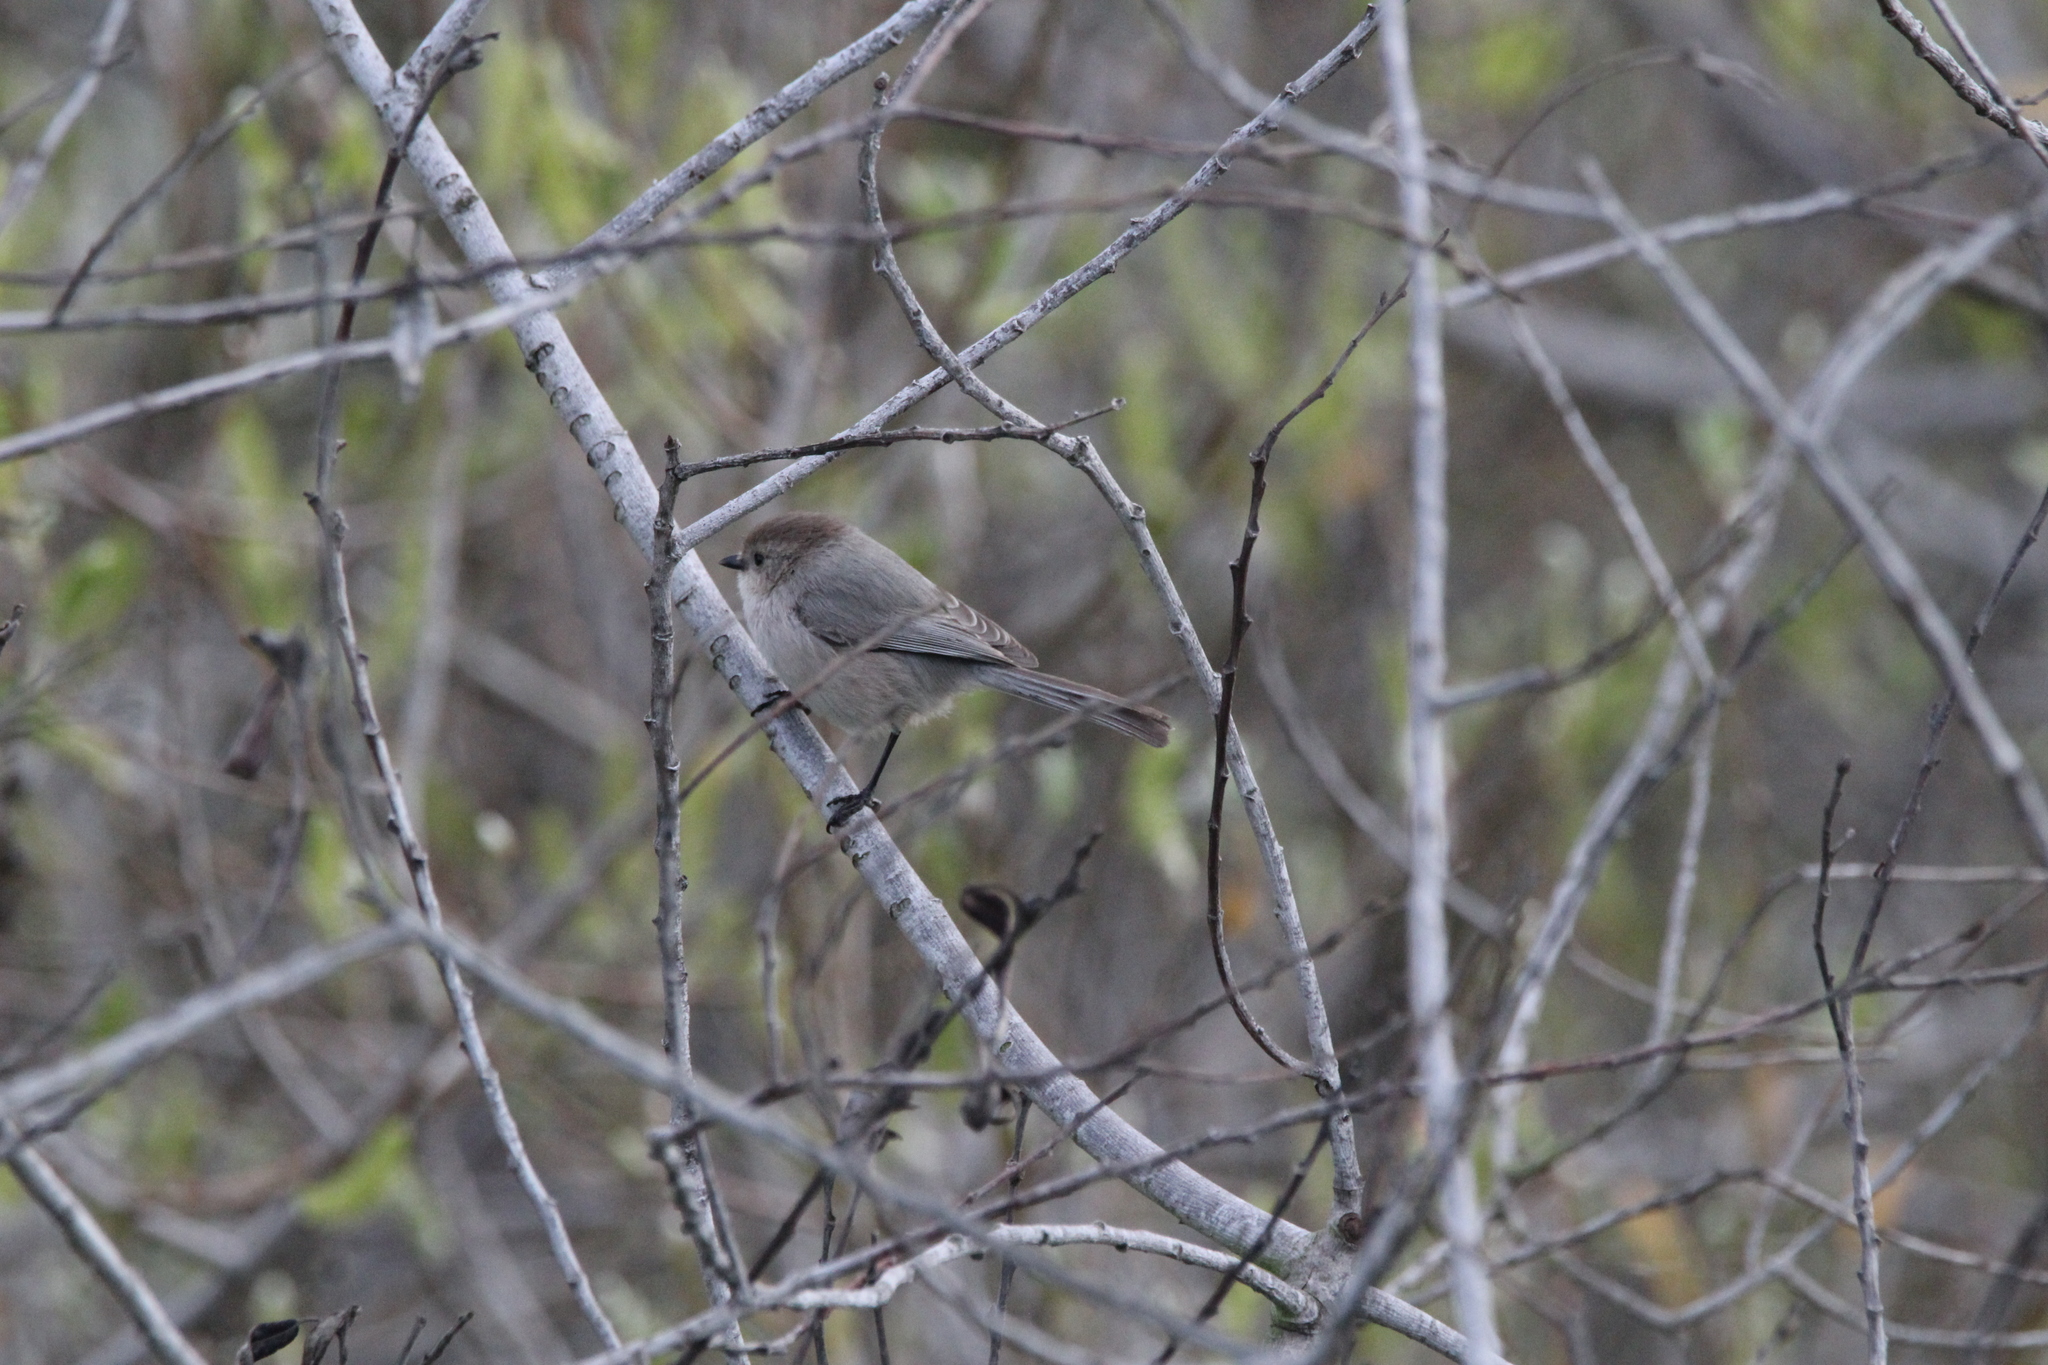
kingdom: Animalia
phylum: Chordata
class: Aves
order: Passeriformes
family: Aegithalidae
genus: Psaltriparus
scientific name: Psaltriparus minimus
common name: American bushtit
